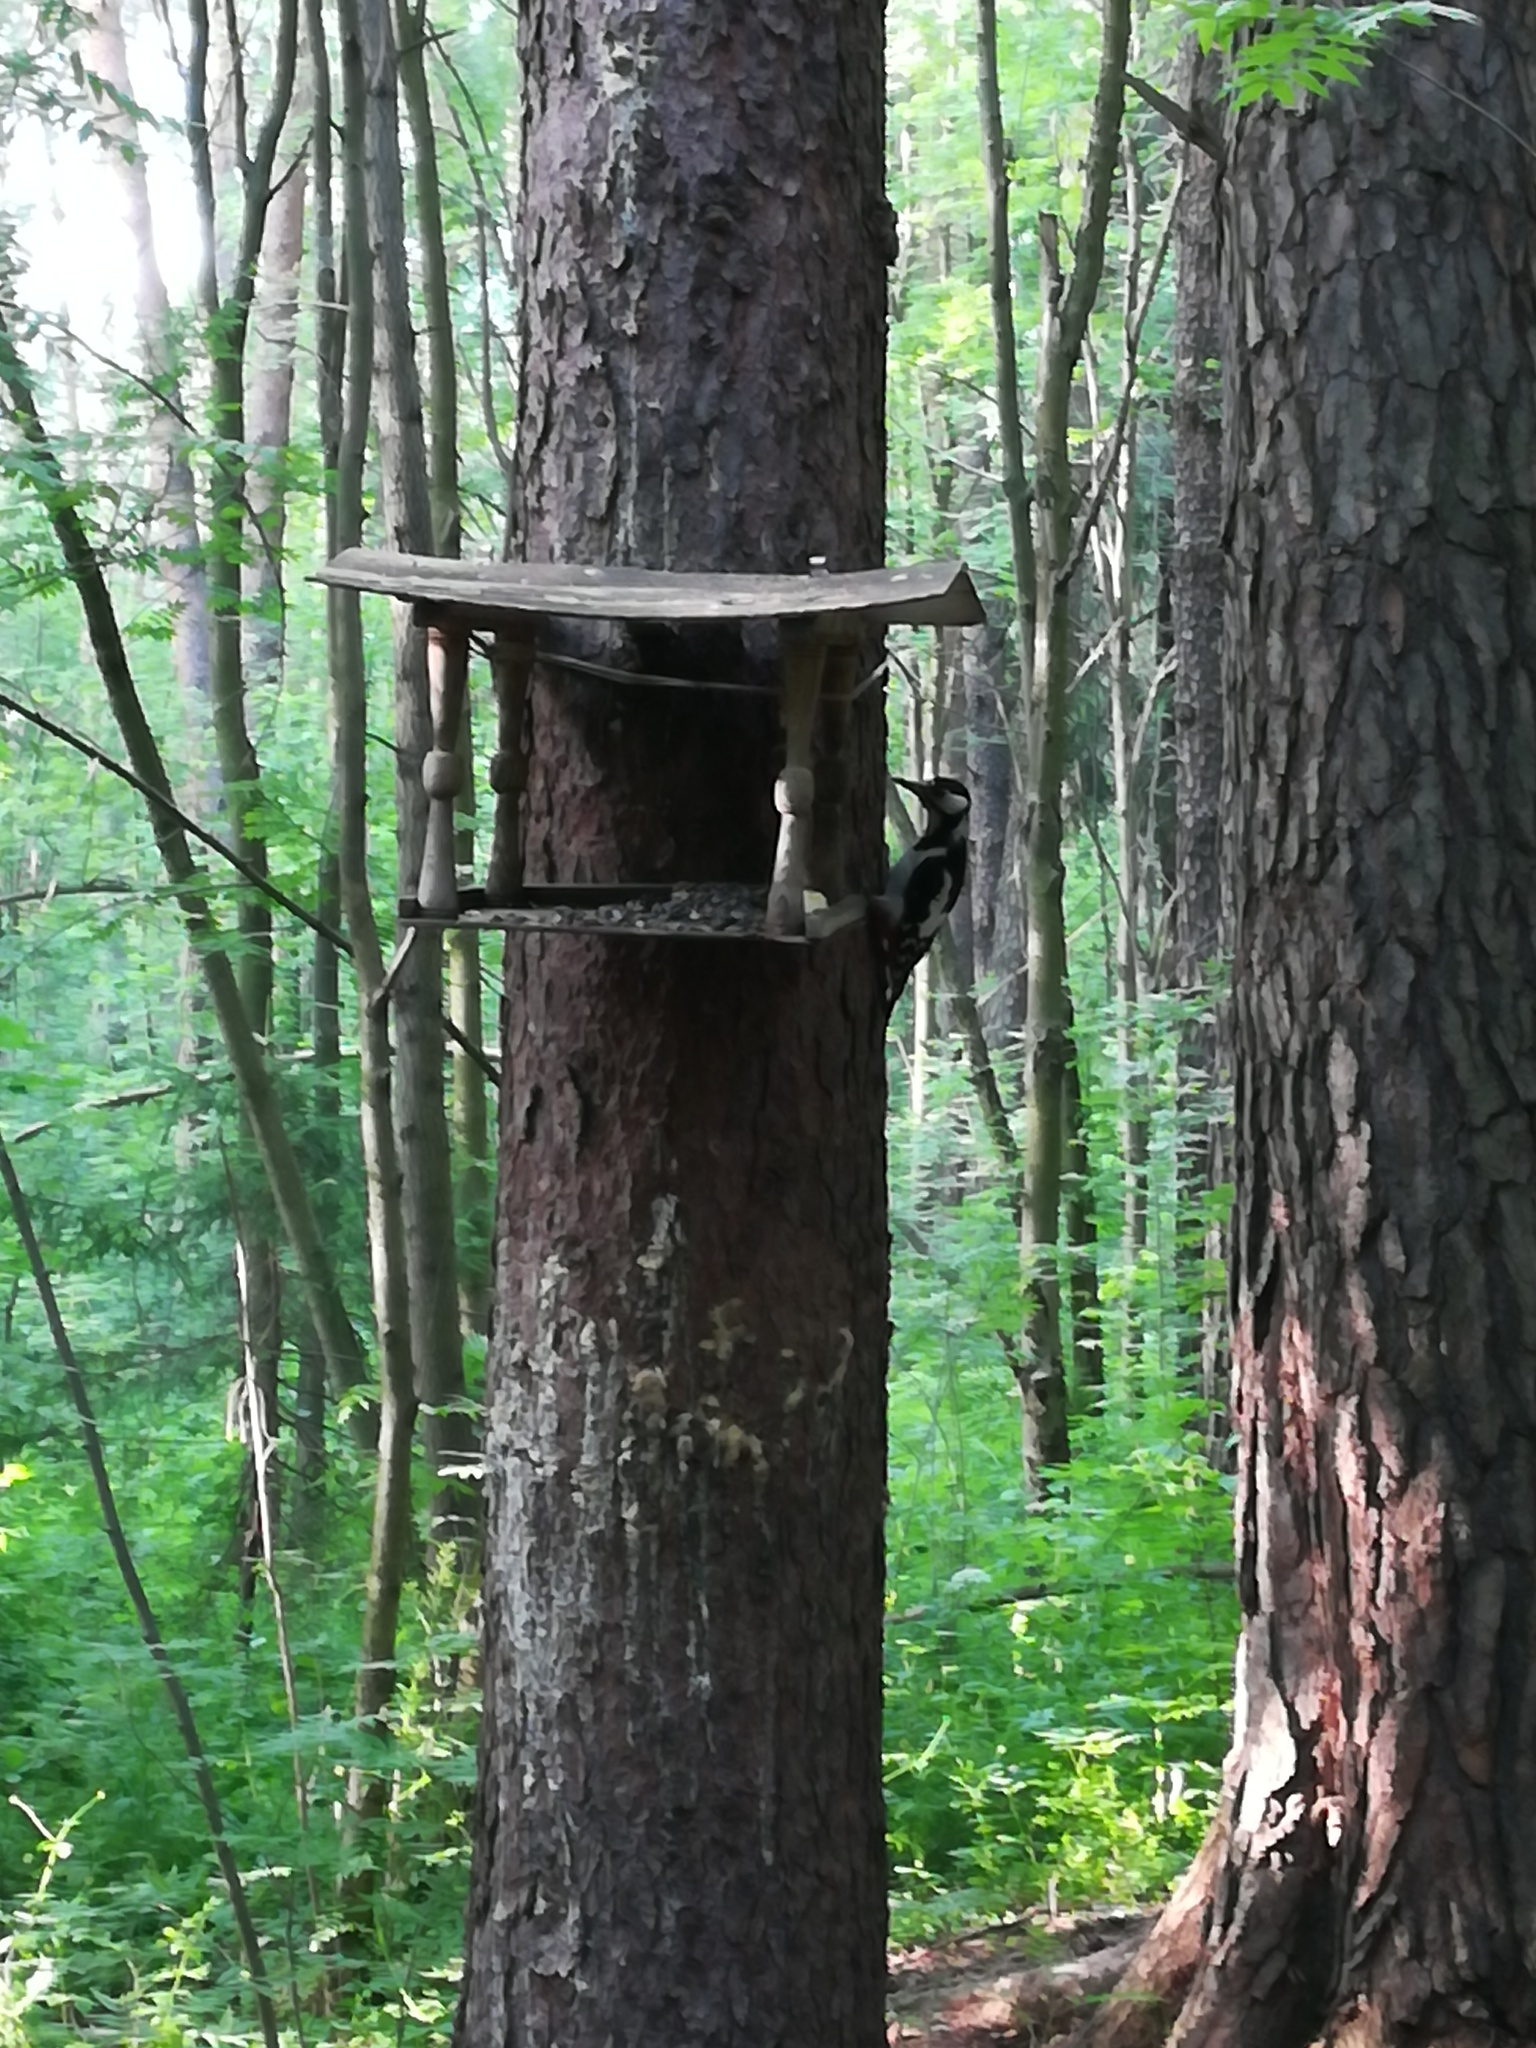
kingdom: Animalia
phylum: Chordata
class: Aves
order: Piciformes
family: Picidae
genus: Dendrocopos
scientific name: Dendrocopos major
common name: Great spotted woodpecker
